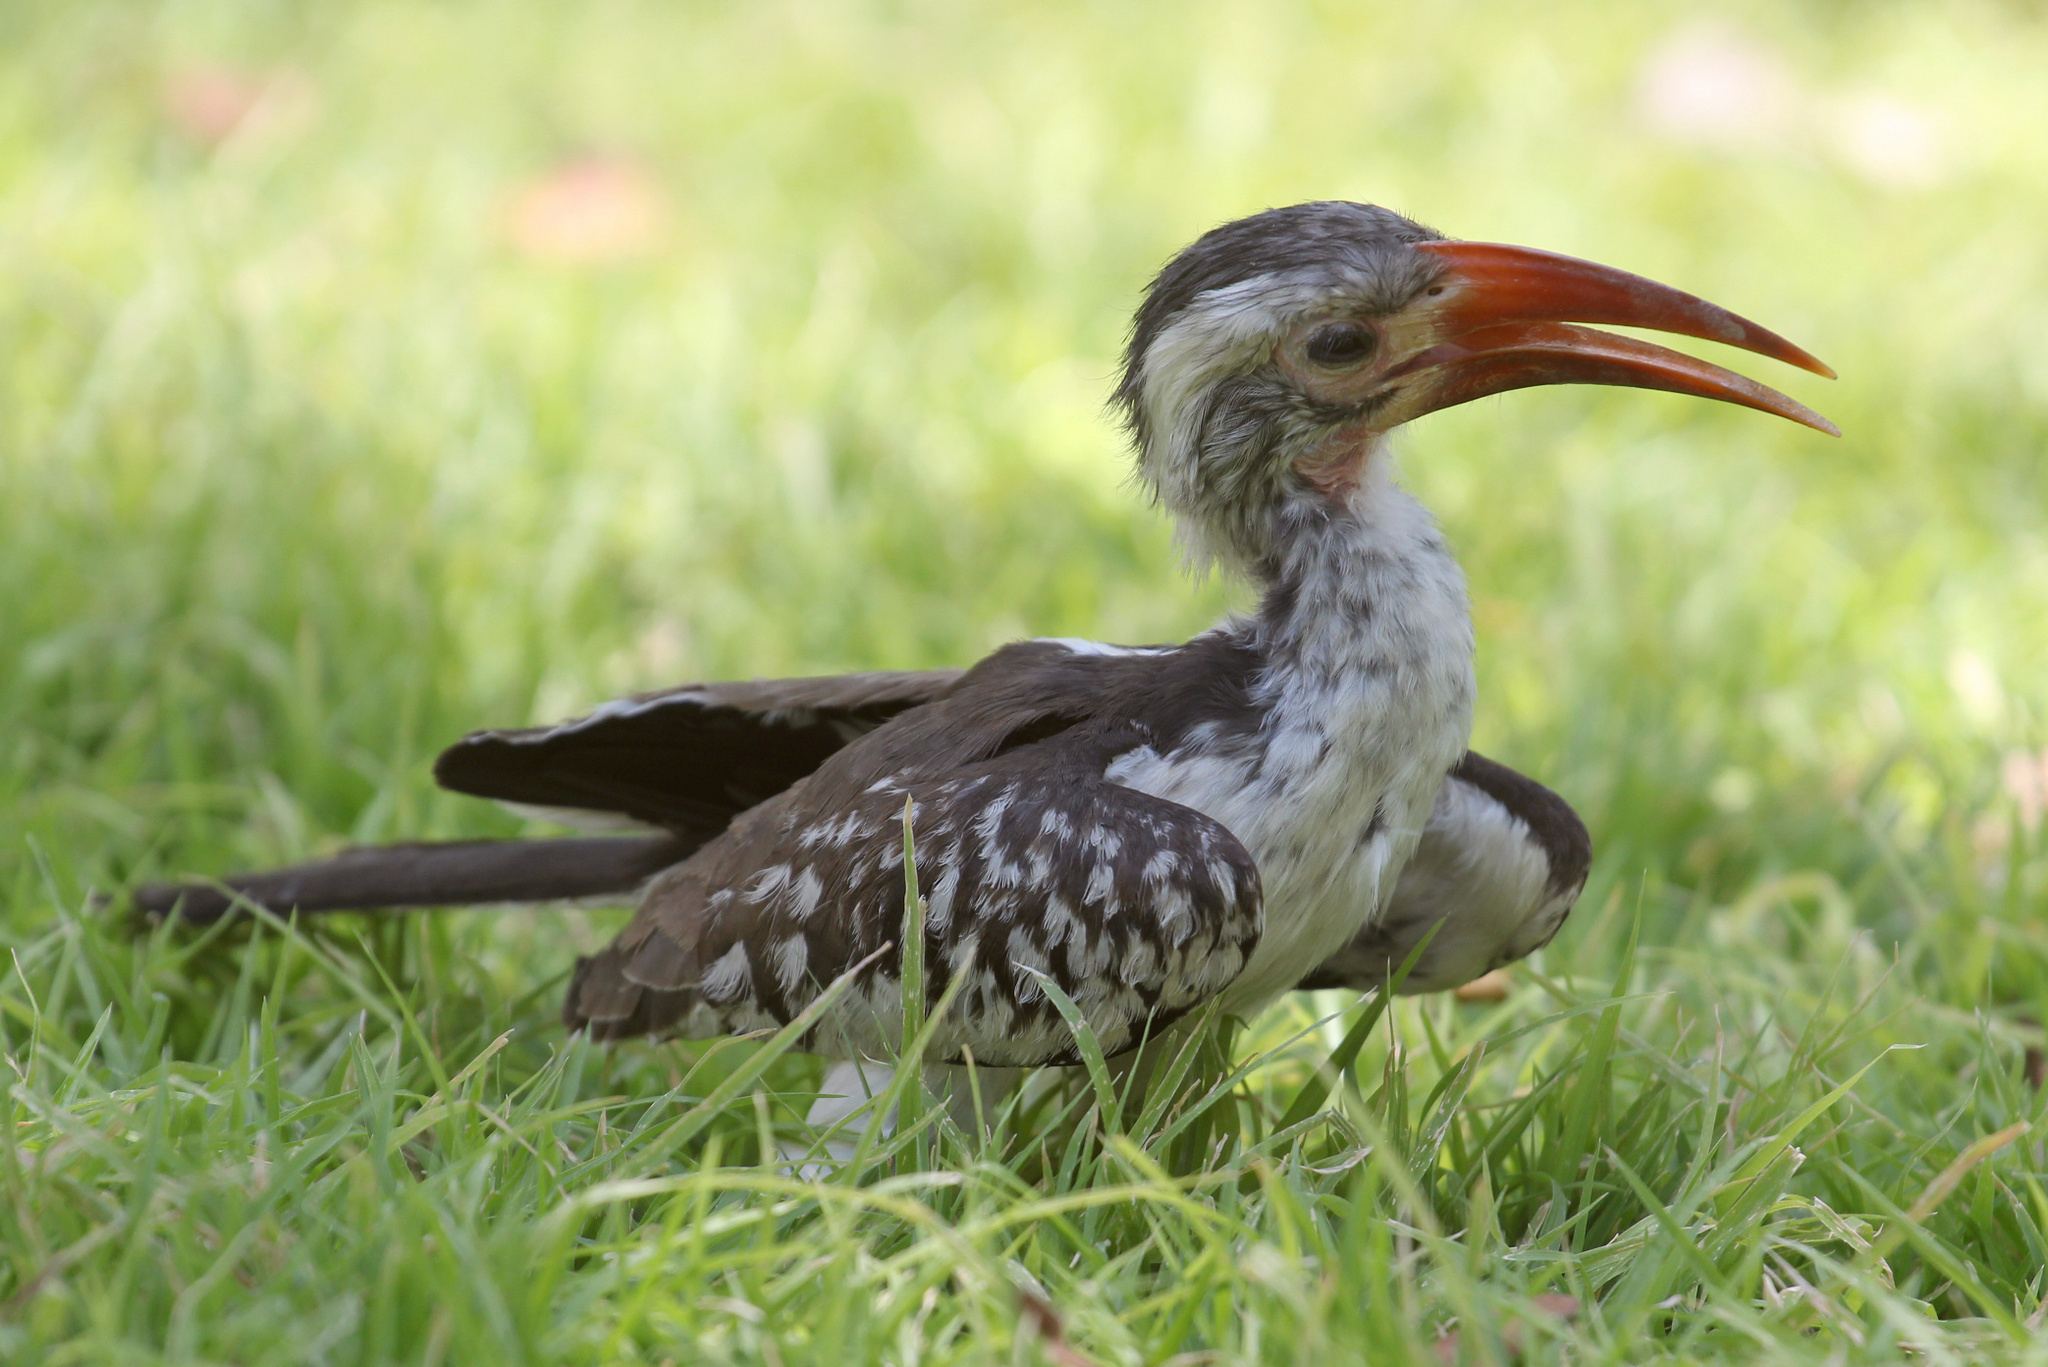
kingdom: Animalia
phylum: Chordata
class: Aves
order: Bucerotiformes
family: Bucerotidae
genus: Tockus
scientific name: Tockus rufirostris
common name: Southern red-billed hornbill
